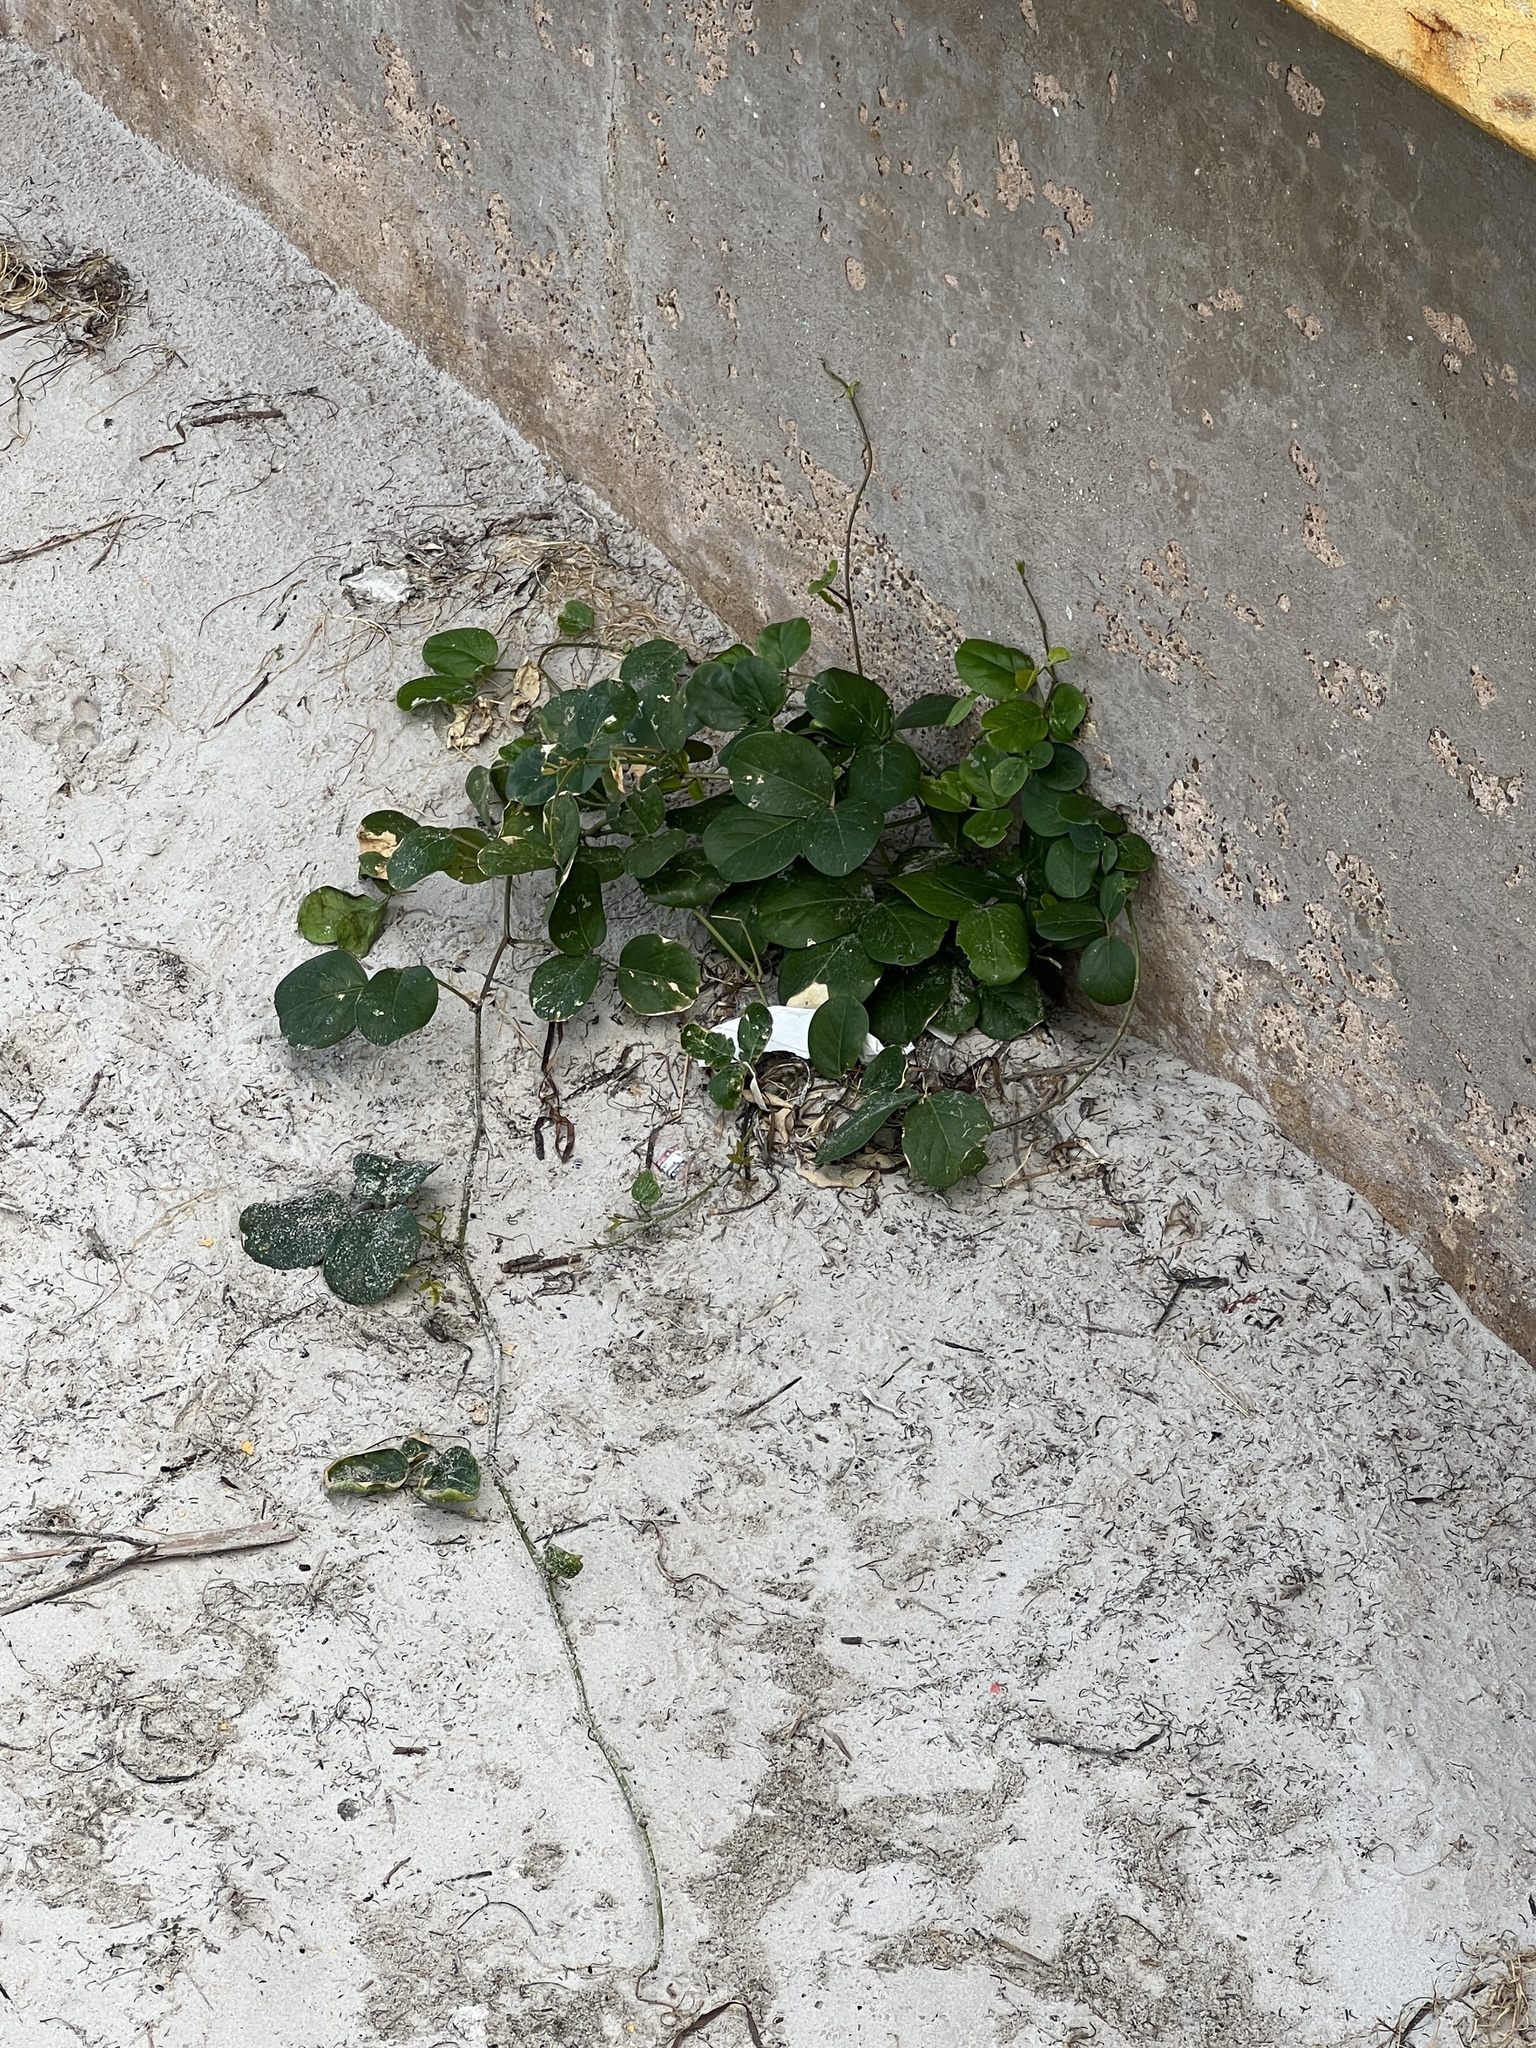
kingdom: Plantae
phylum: Tracheophyta
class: Magnoliopsida
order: Fabales
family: Fabaceae
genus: Canavalia
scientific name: Canavalia rosea
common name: Beach-bean
